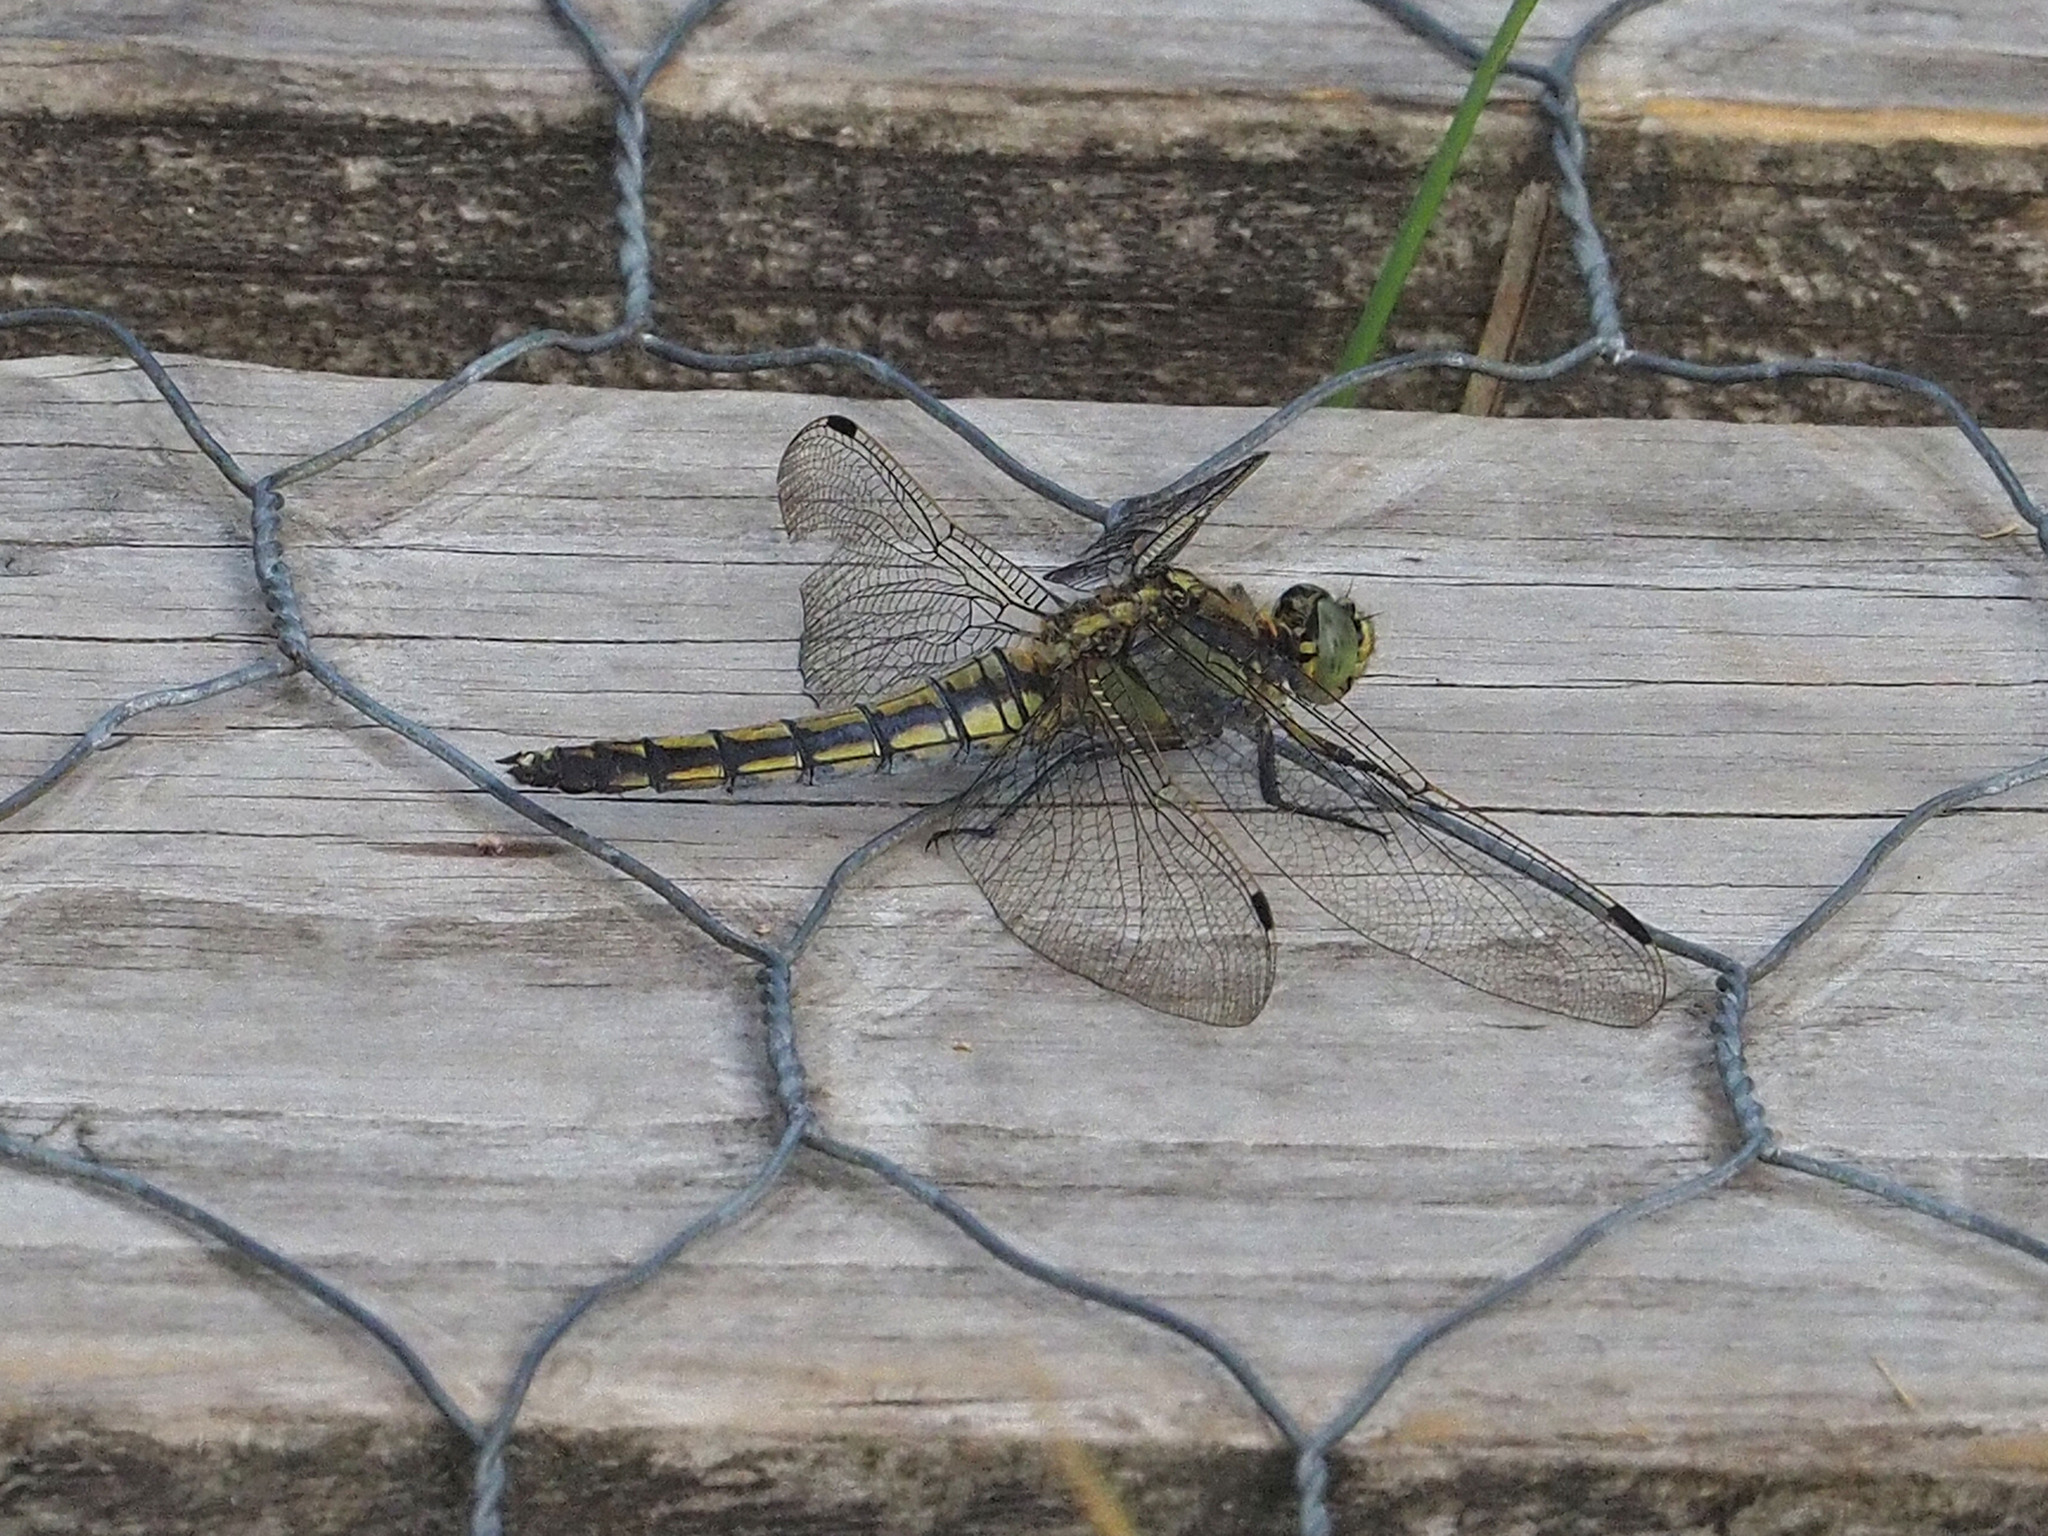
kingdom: Animalia
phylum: Arthropoda
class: Insecta
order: Odonata
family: Libellulidae
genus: Orthetrum
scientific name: Orthetrum cancellatum
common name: Black-tailed skimmer
